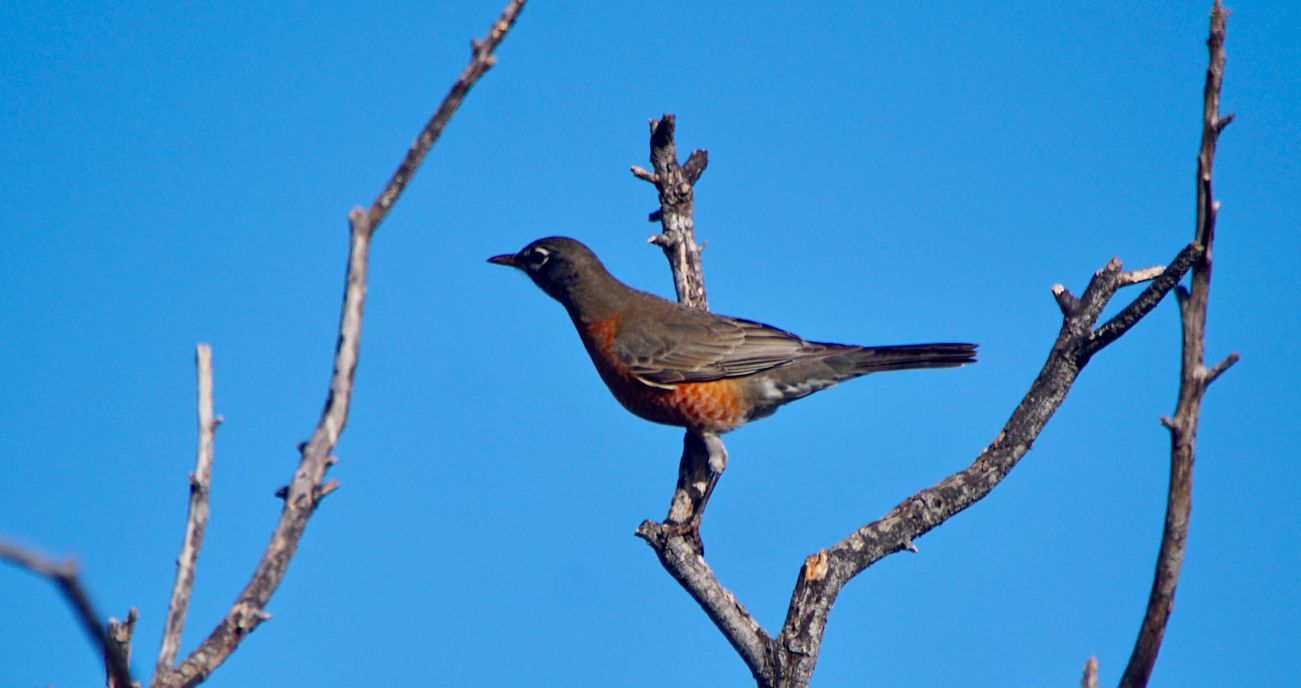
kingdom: Animalia
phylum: Chordata
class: Aves
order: Passeriformes
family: Turdidae
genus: Turdus
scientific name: Turdus migratorius
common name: American robin
